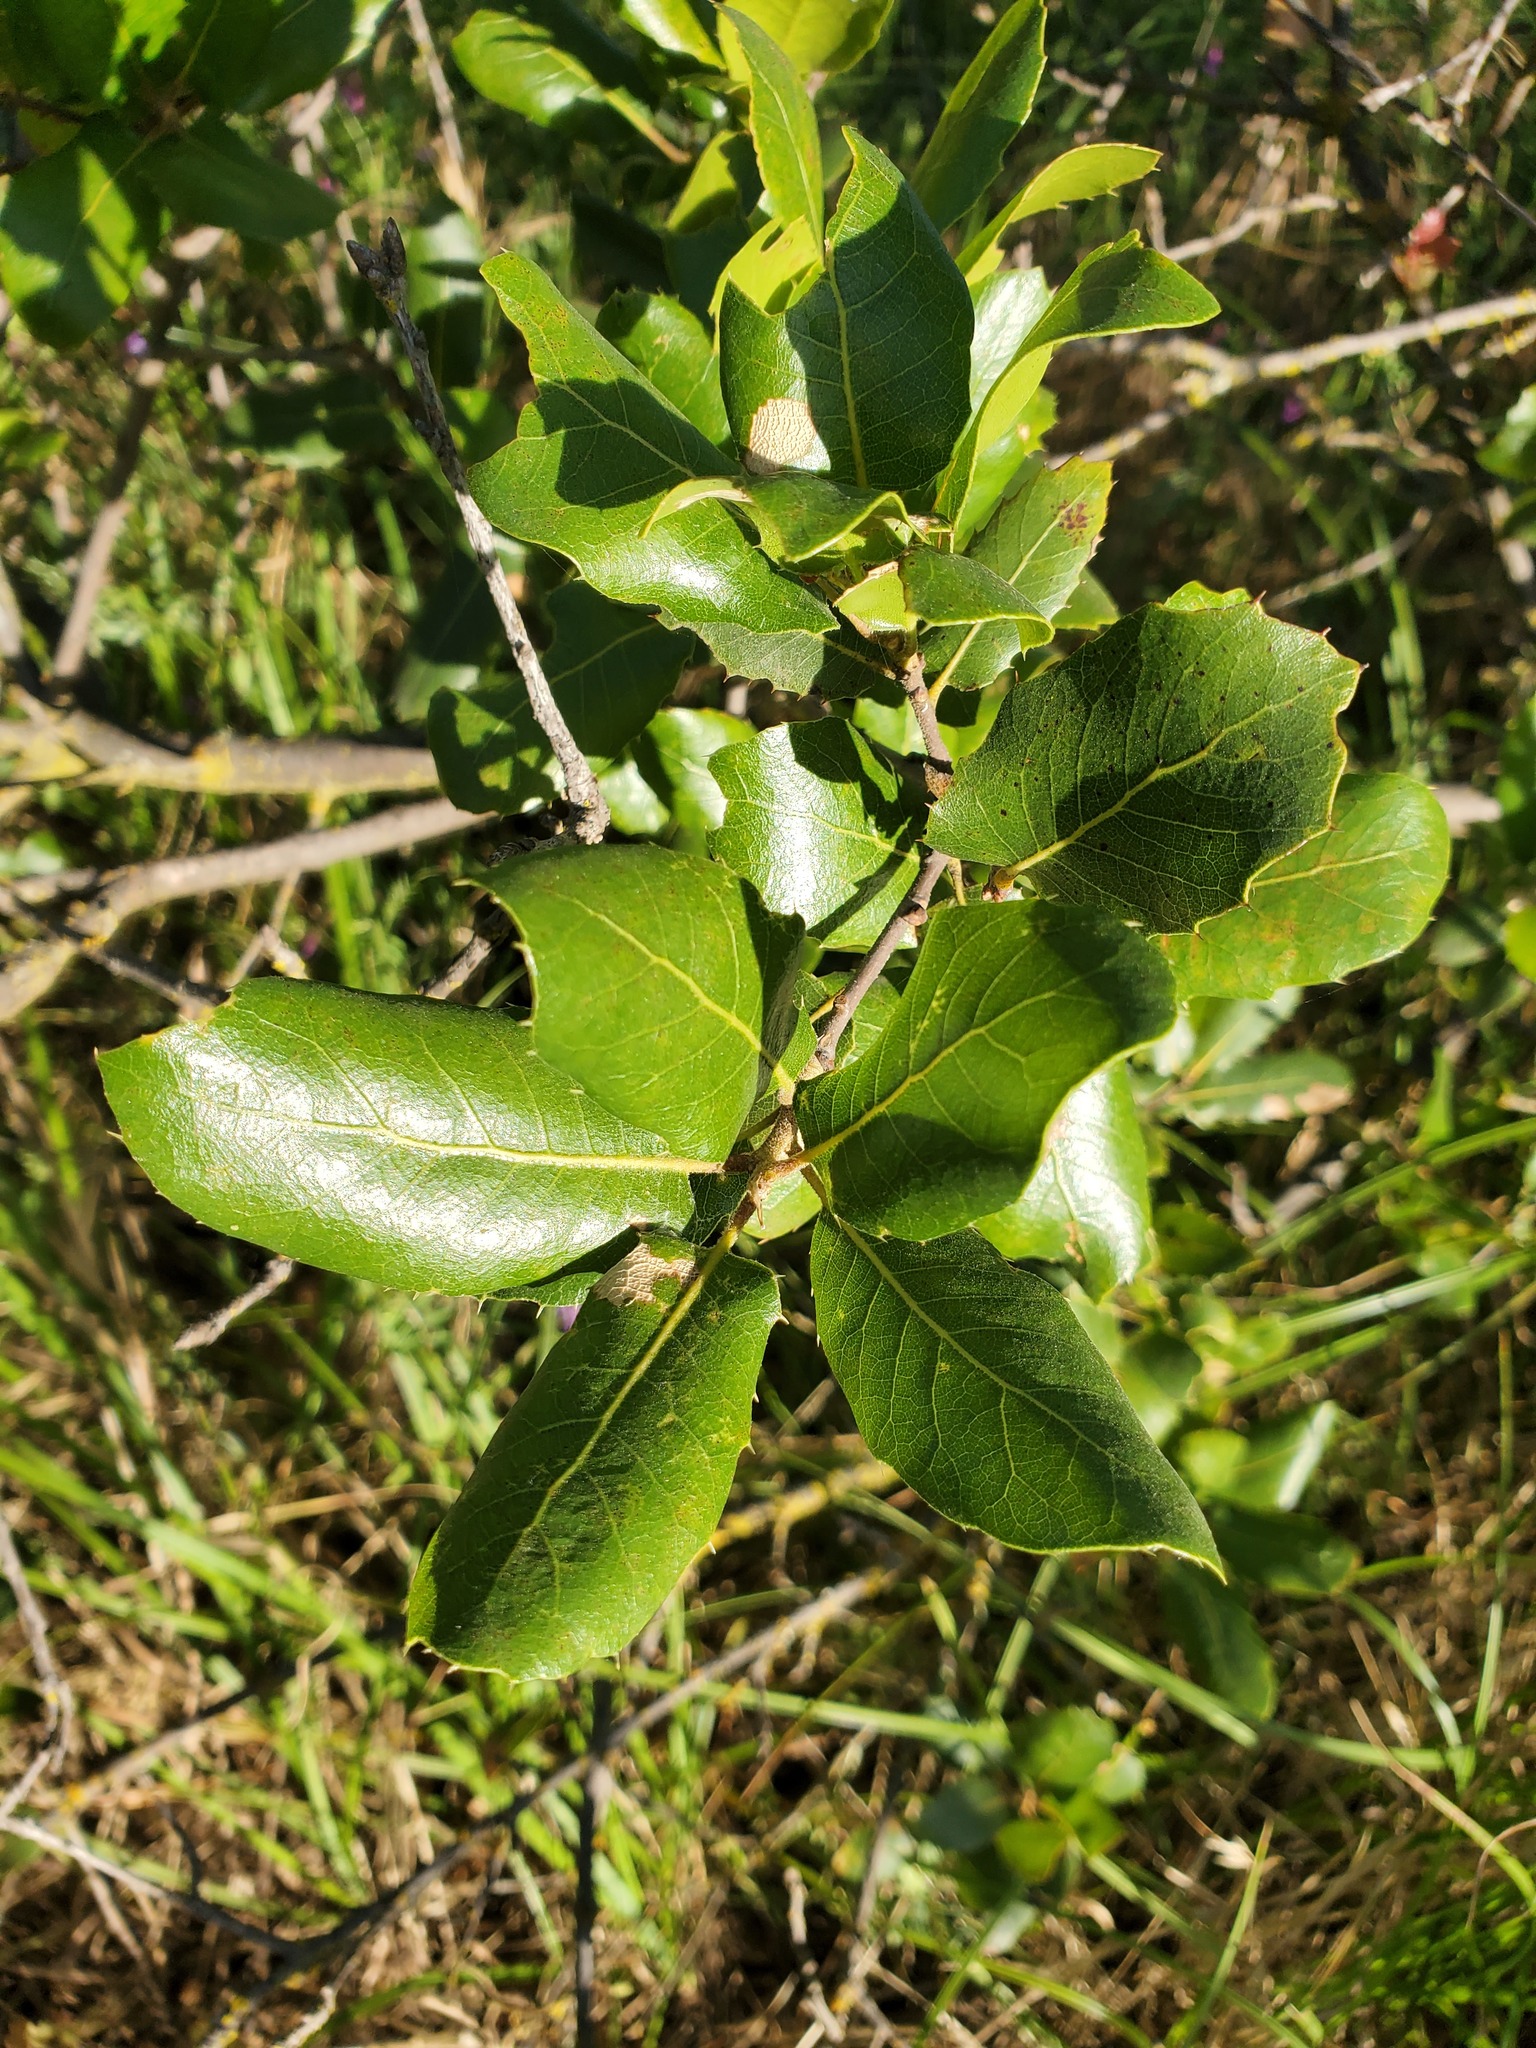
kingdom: Plantae
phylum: Tracheophyta
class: Magnoliopsida
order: Fagales
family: Fagaceae
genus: Quercus
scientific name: Quercus wislizeni
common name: Interior live oak
